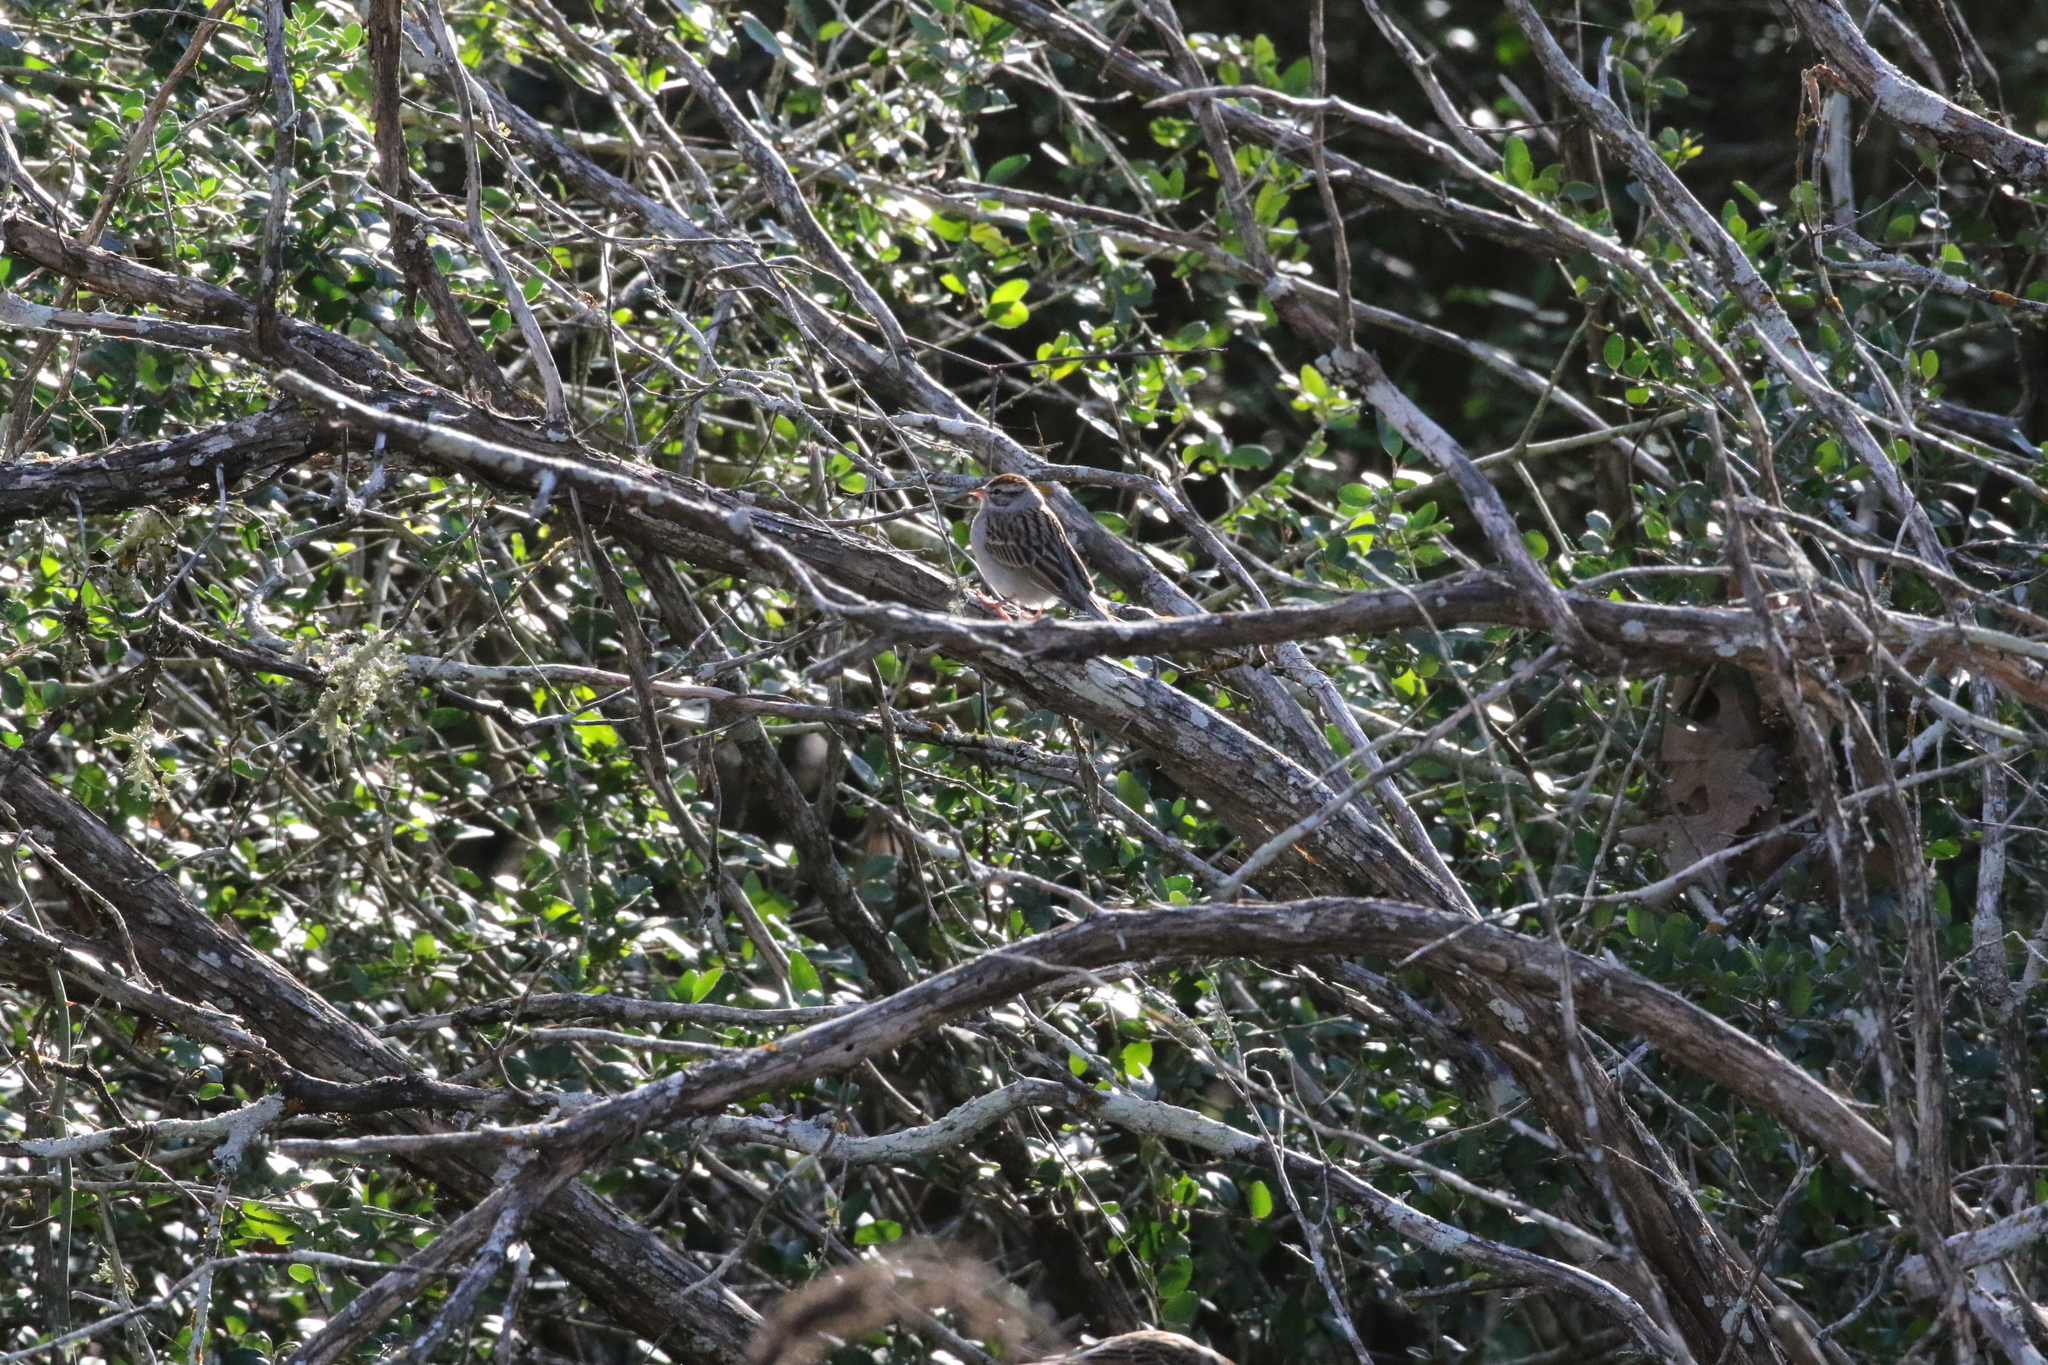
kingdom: Animalia
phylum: Chordata
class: Aves
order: Passeriformes
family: Passerellidae
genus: Spizella
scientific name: Spizella passerina
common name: Chipping sparrow
